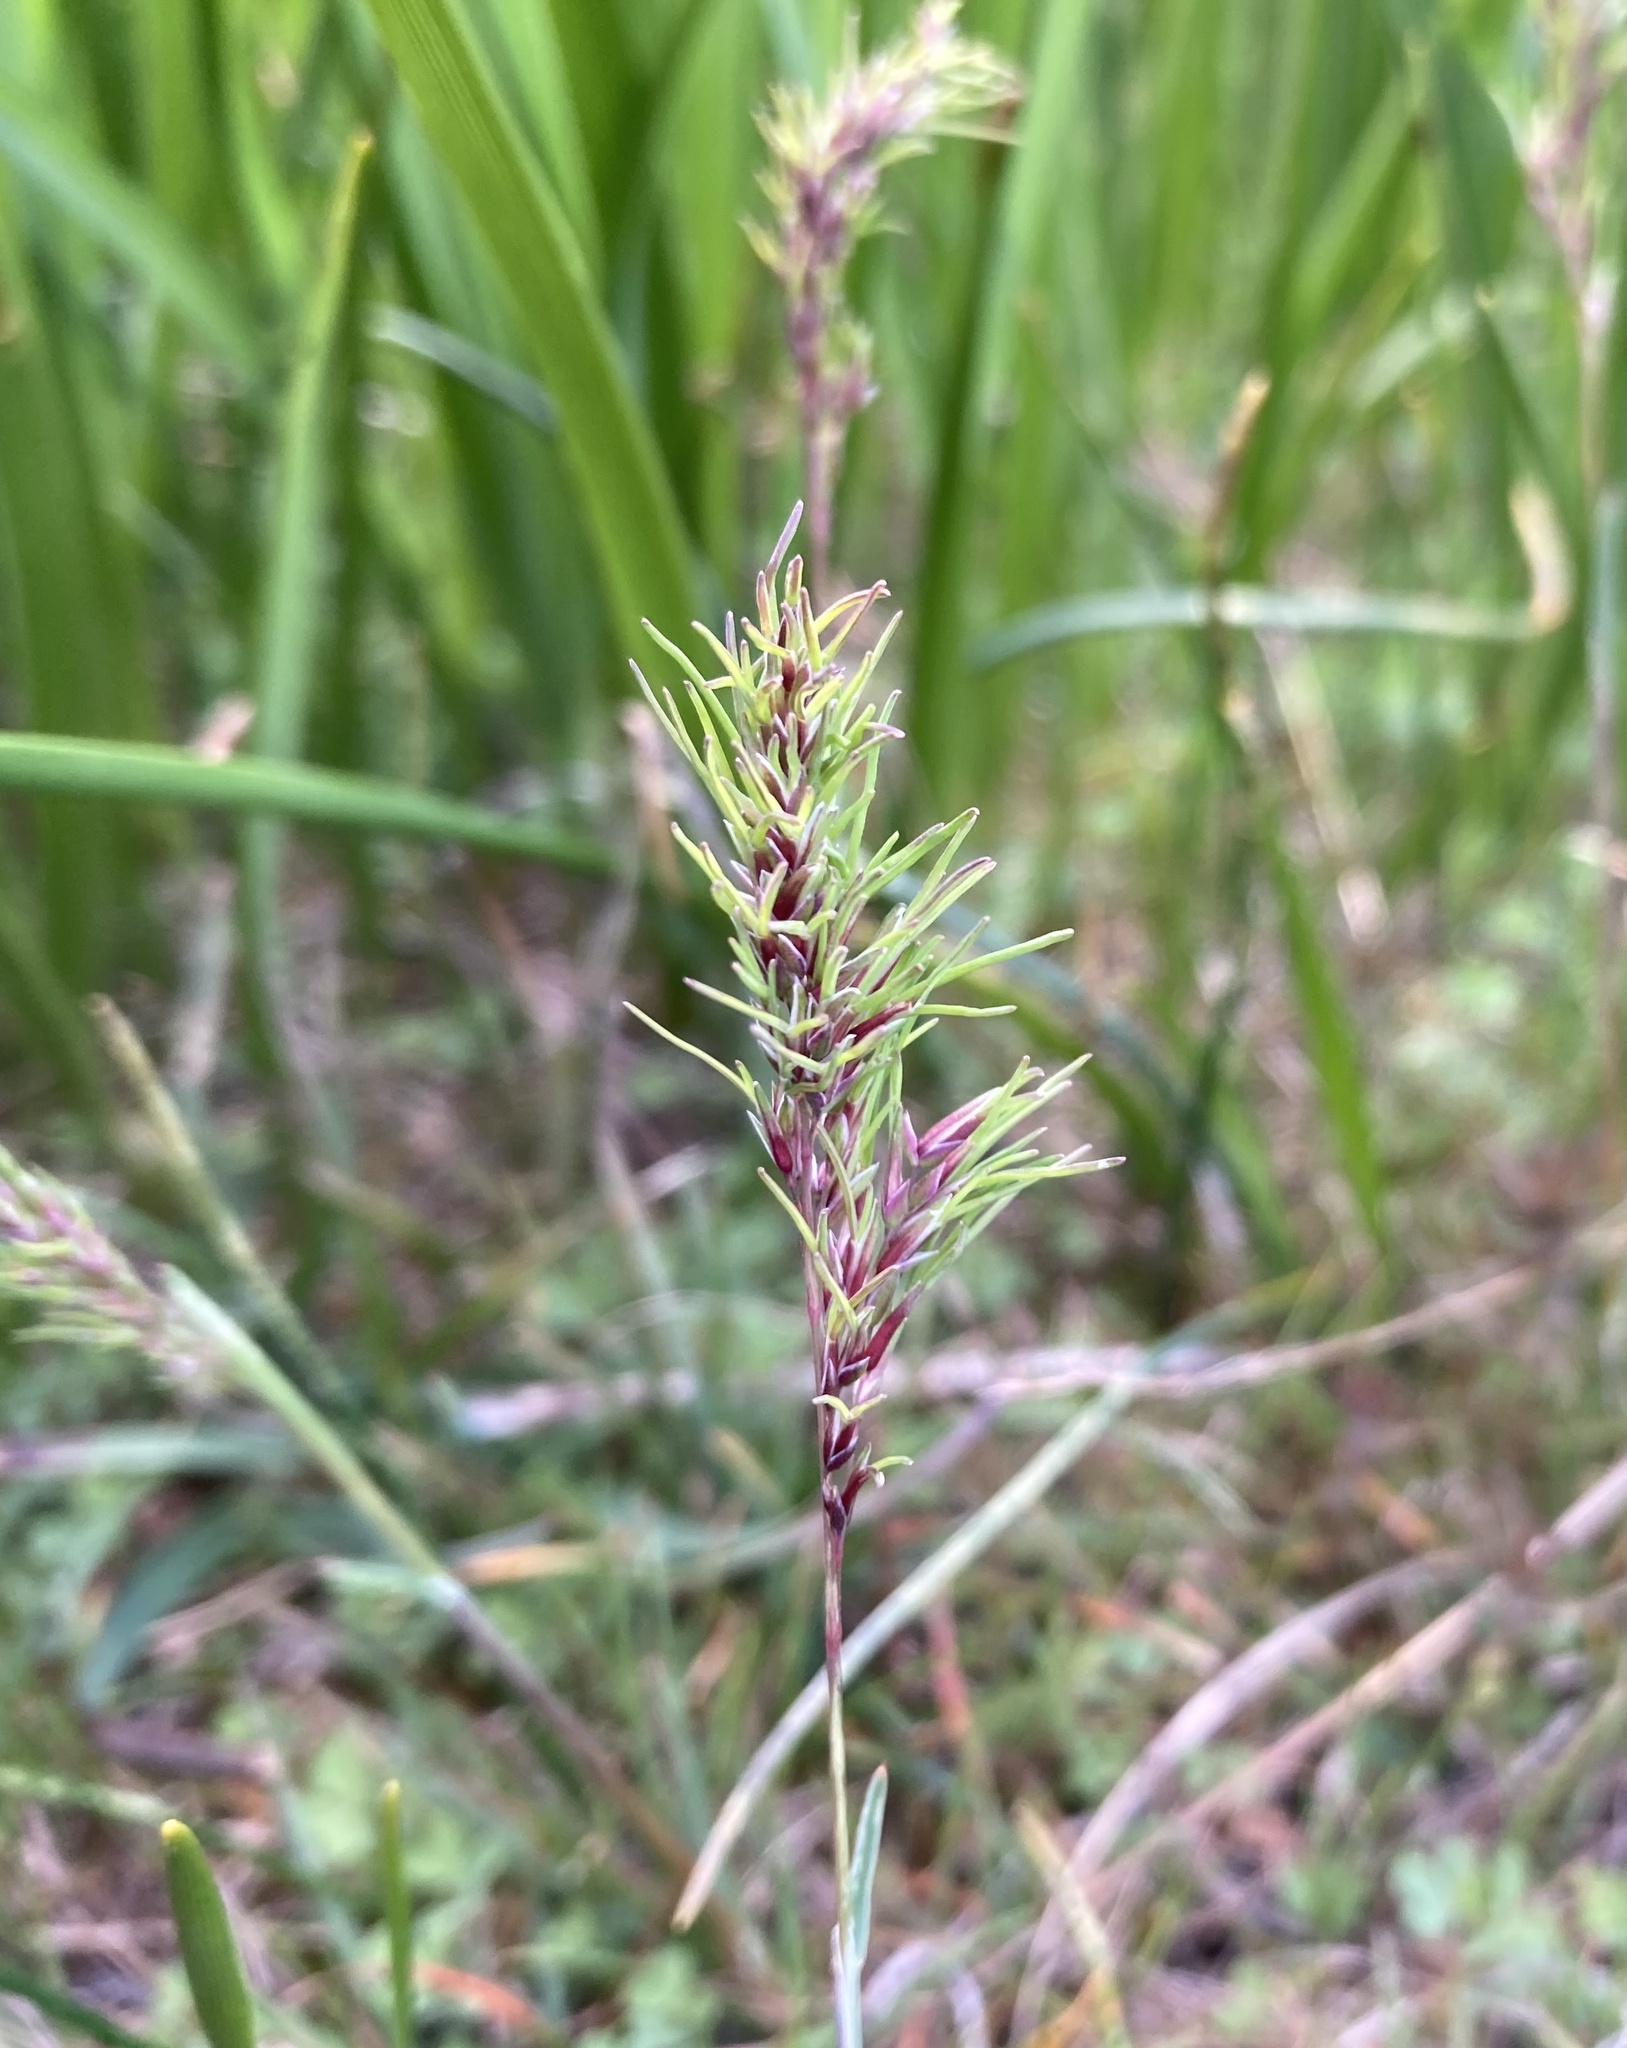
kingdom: Plantae
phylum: Tracheophyta
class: Liliopsida
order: Poales
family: Poaceae
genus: Poa
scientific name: Poa bulbosa
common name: Bulbous bluegrass
